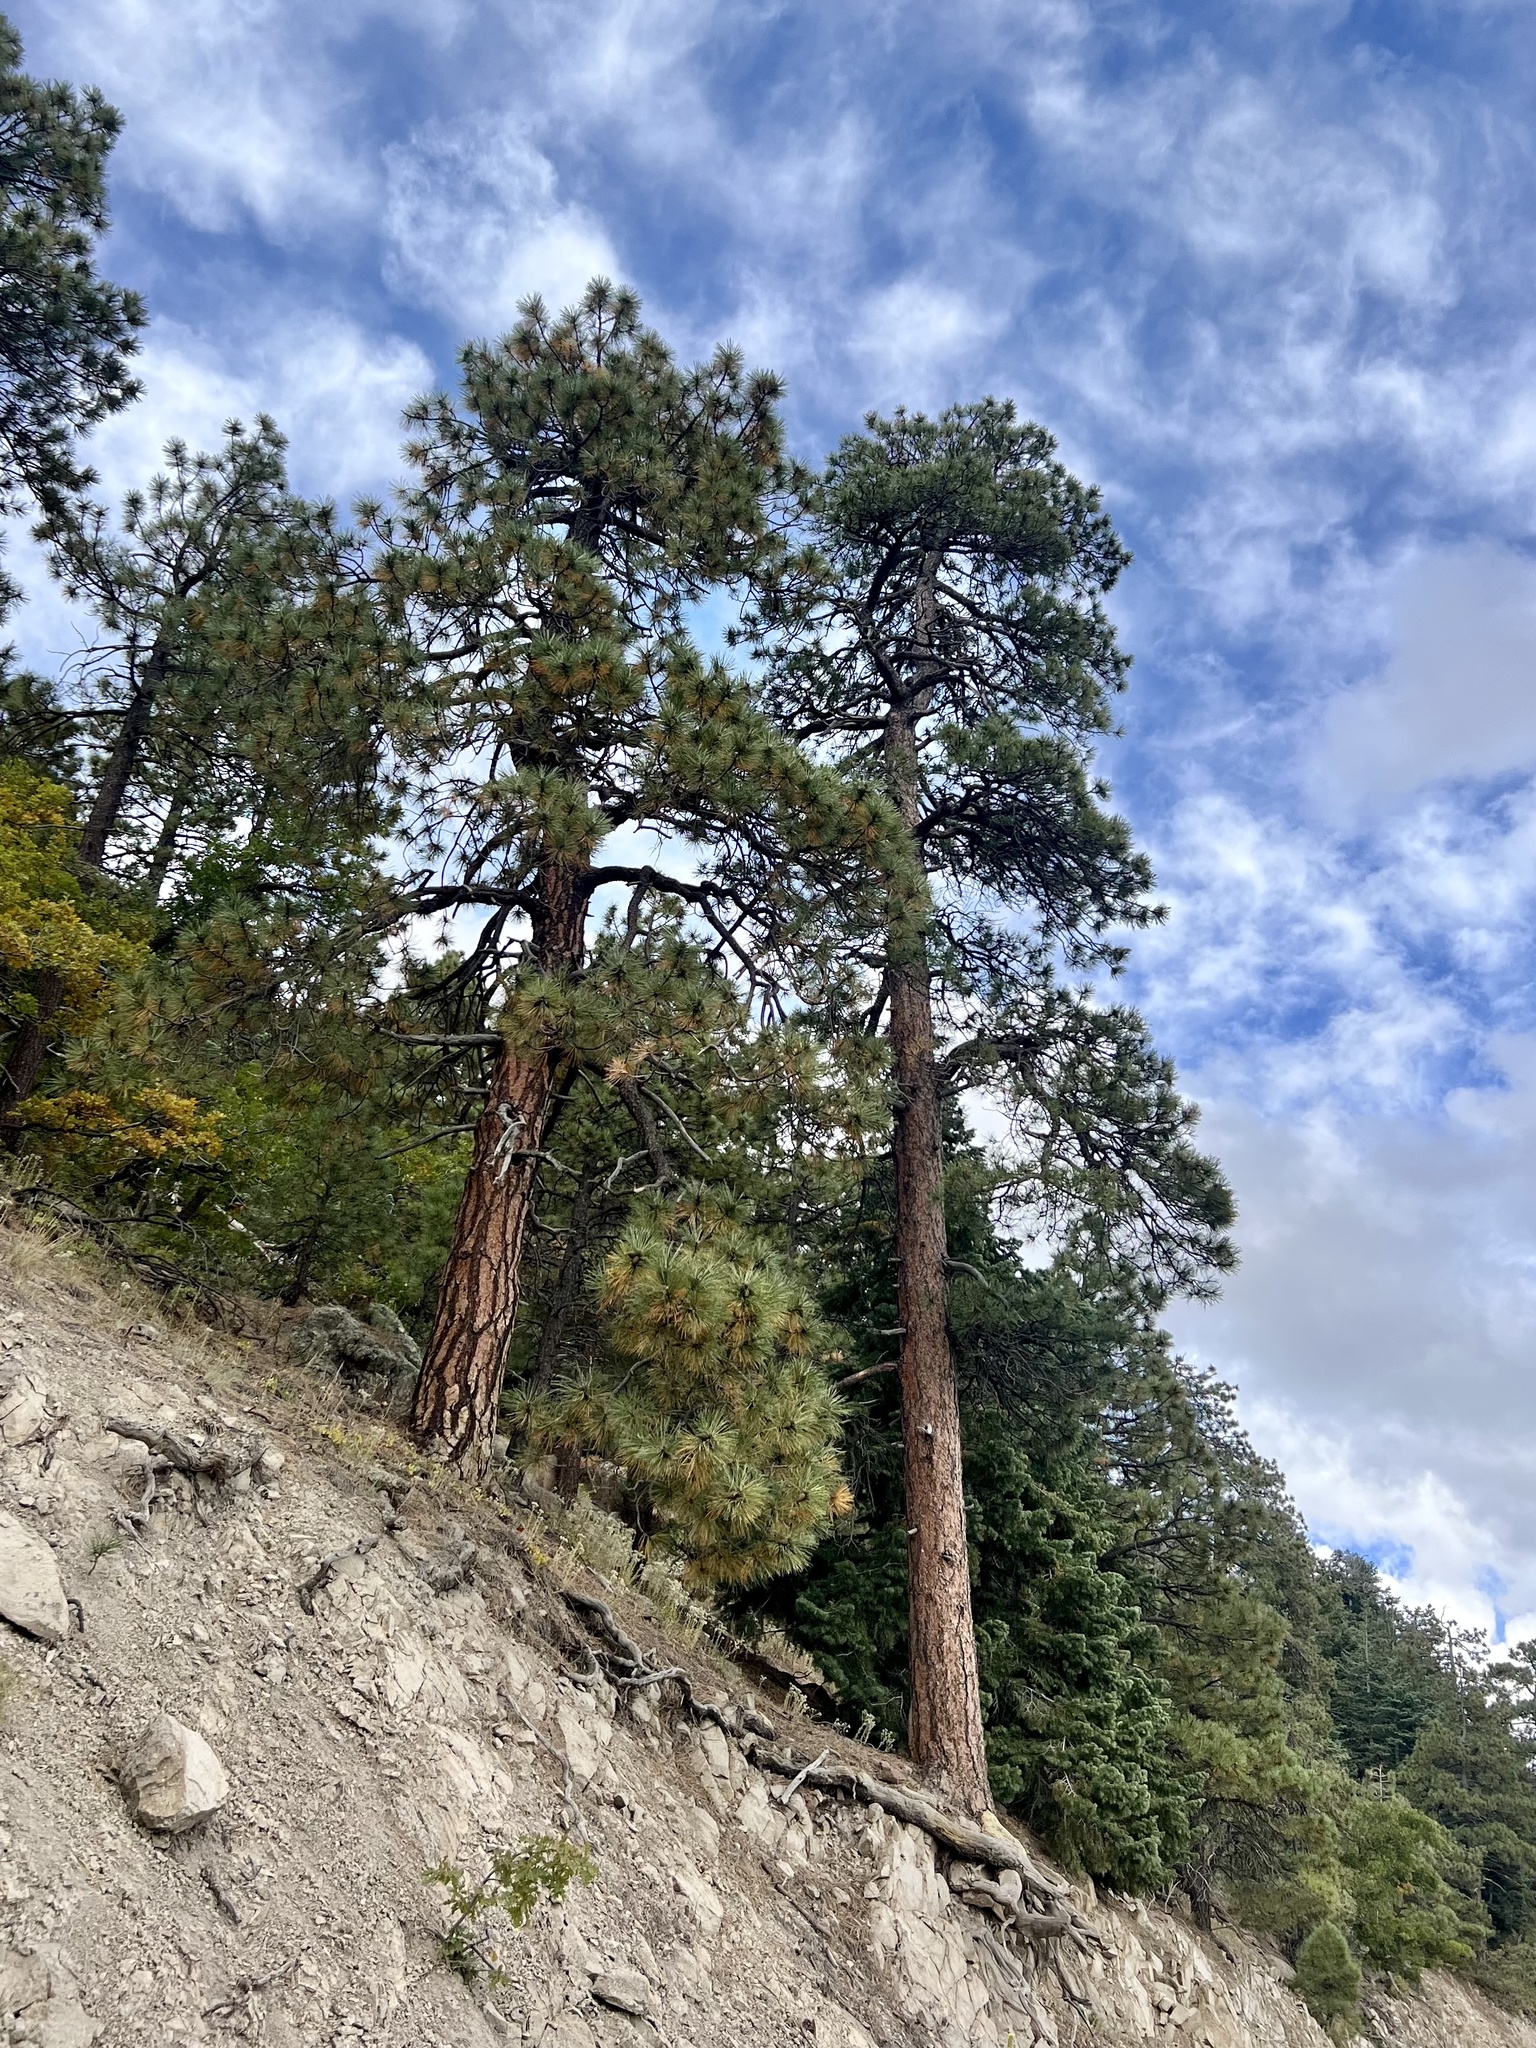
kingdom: Plantae
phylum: Tracheophyta
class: Pinopsida
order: Pinales
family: Pinaceae
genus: Pinus
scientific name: Pinus ponderosa
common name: Western yellow-pine
